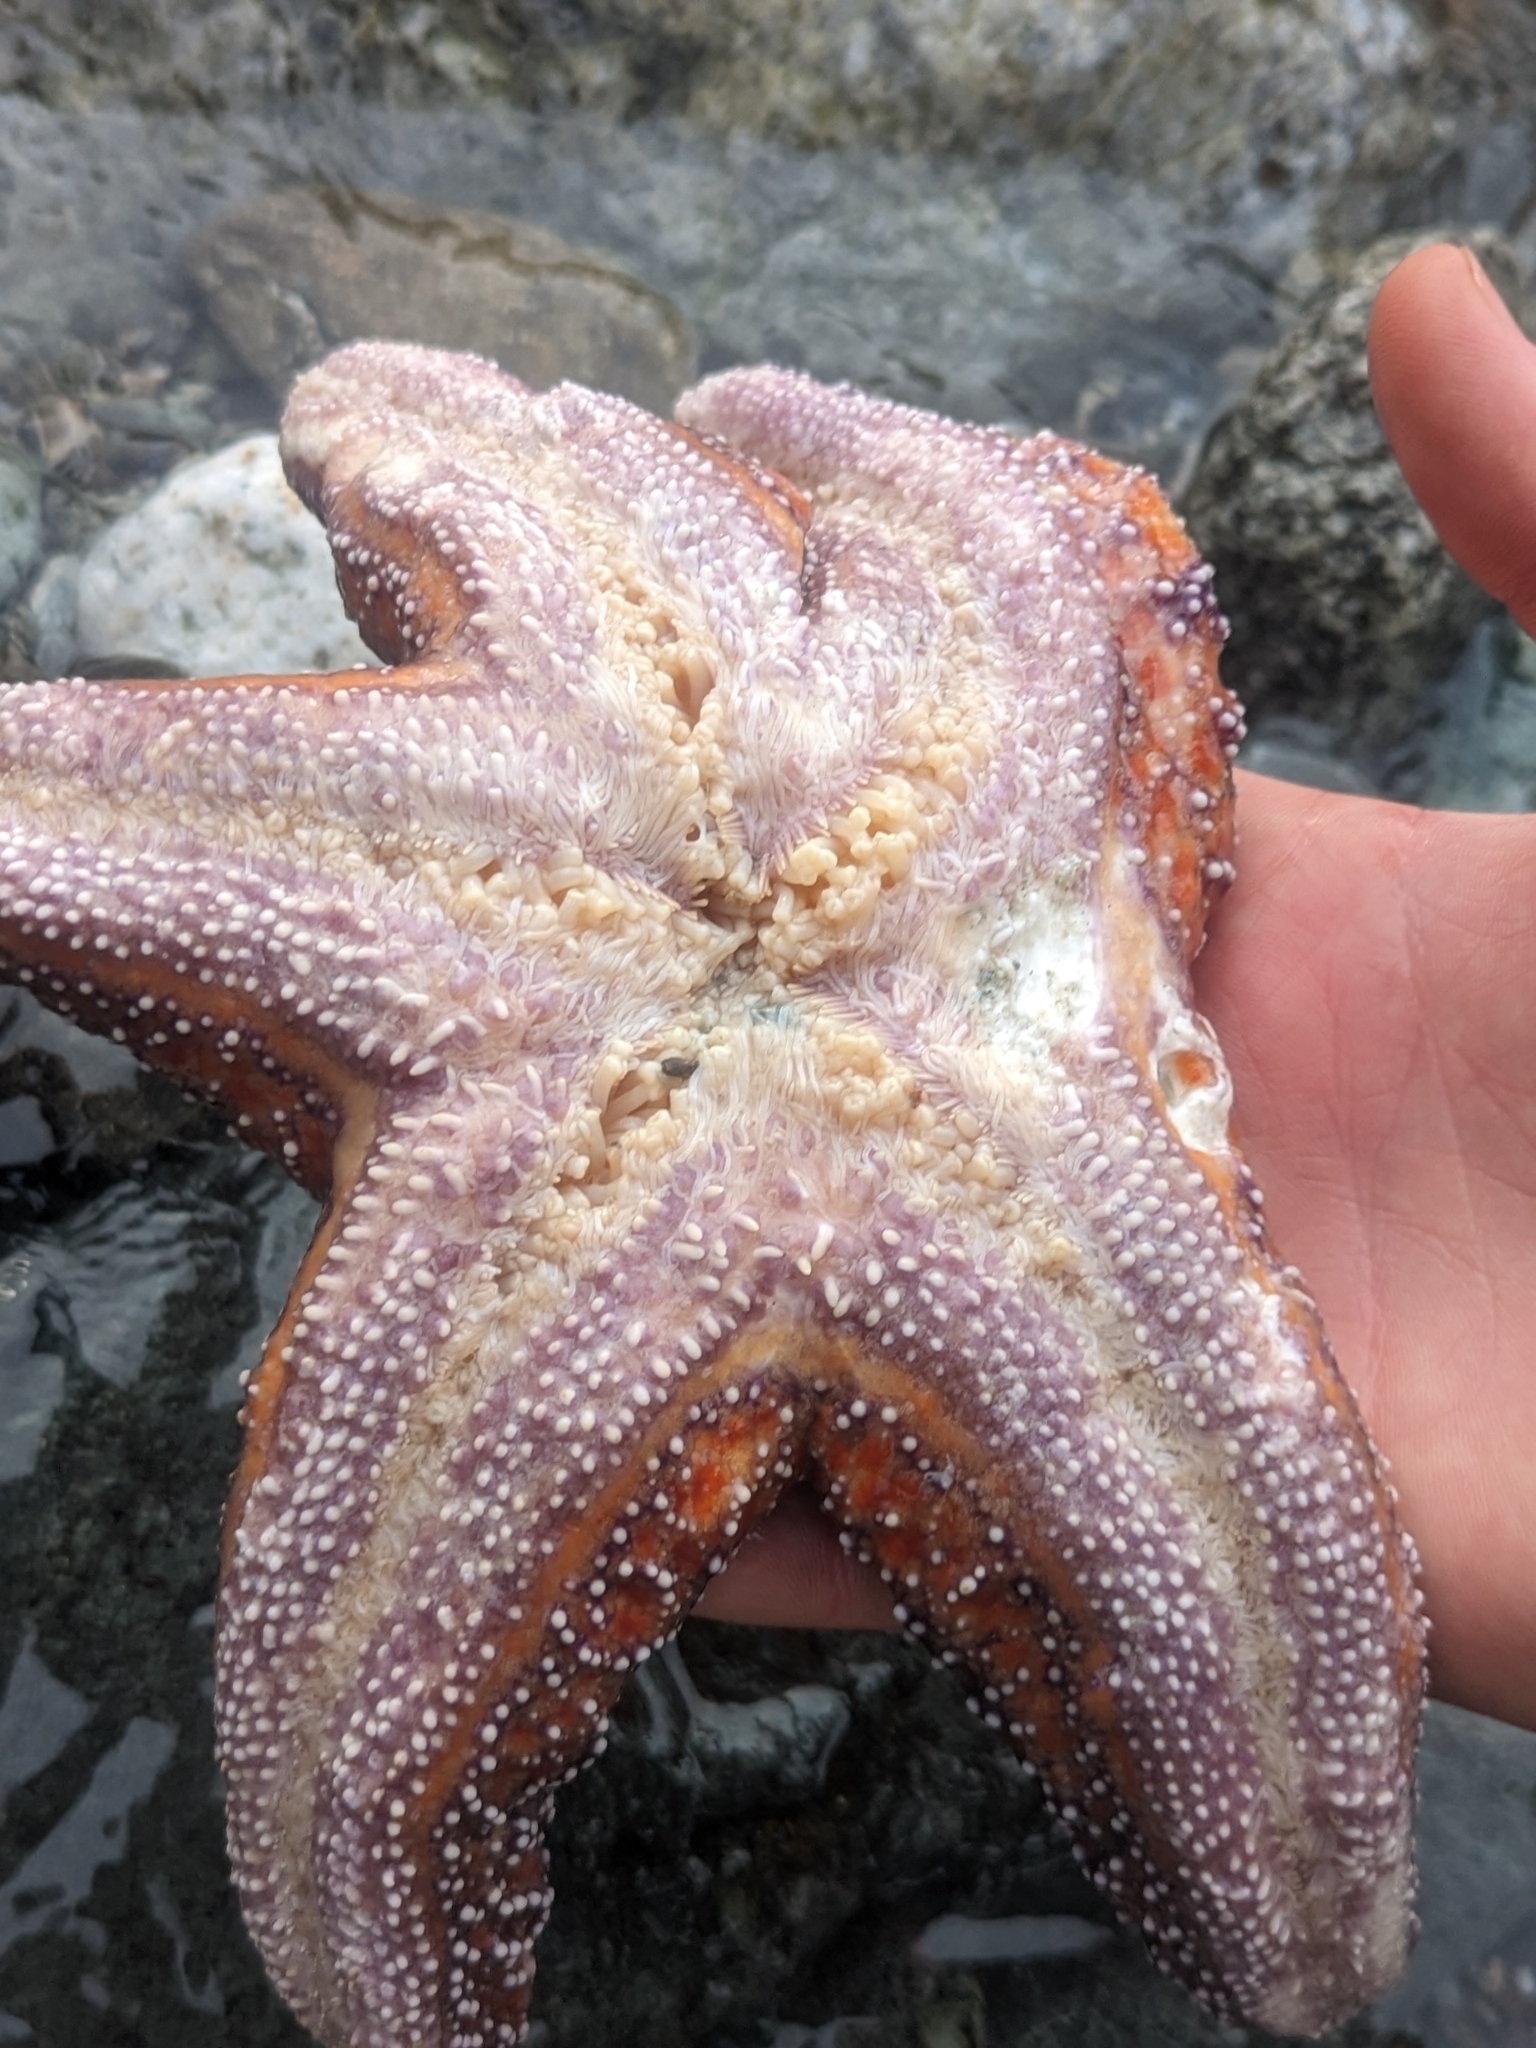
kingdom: Animalia
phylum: Echinodermata
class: Asteroidea
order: Forcipulatida
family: Asteriidae
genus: Pisaster
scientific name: Pisaster ochraceus
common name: Ochre stars
